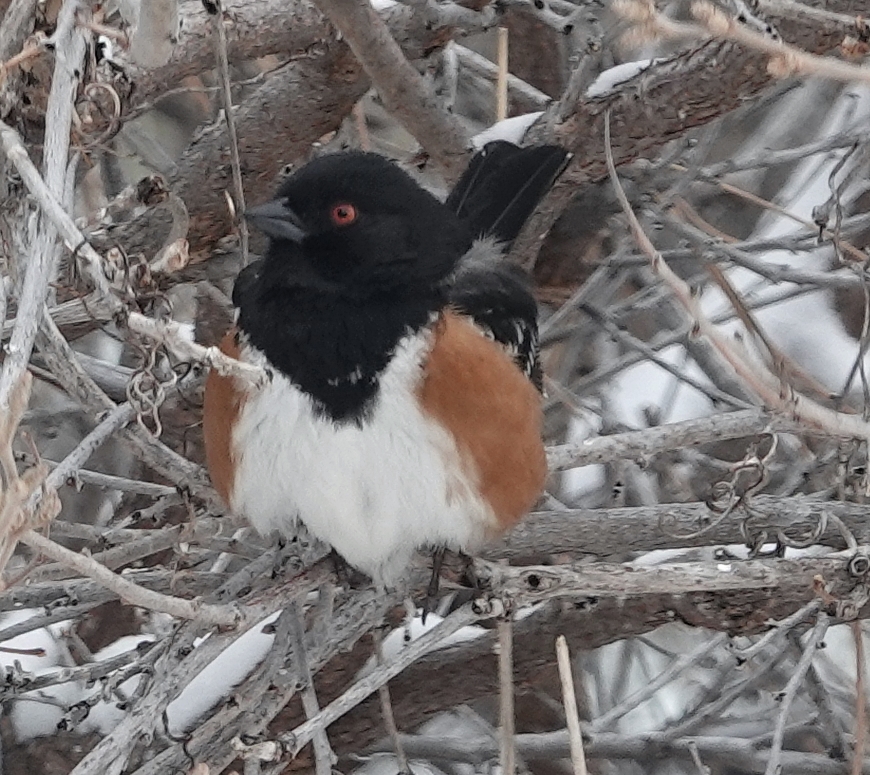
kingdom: Animalia
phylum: Chordata
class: Aves
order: Passeriformes
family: Passerellidae
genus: Pipilo
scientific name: Pipilo maculatus
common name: Spotted towhee
